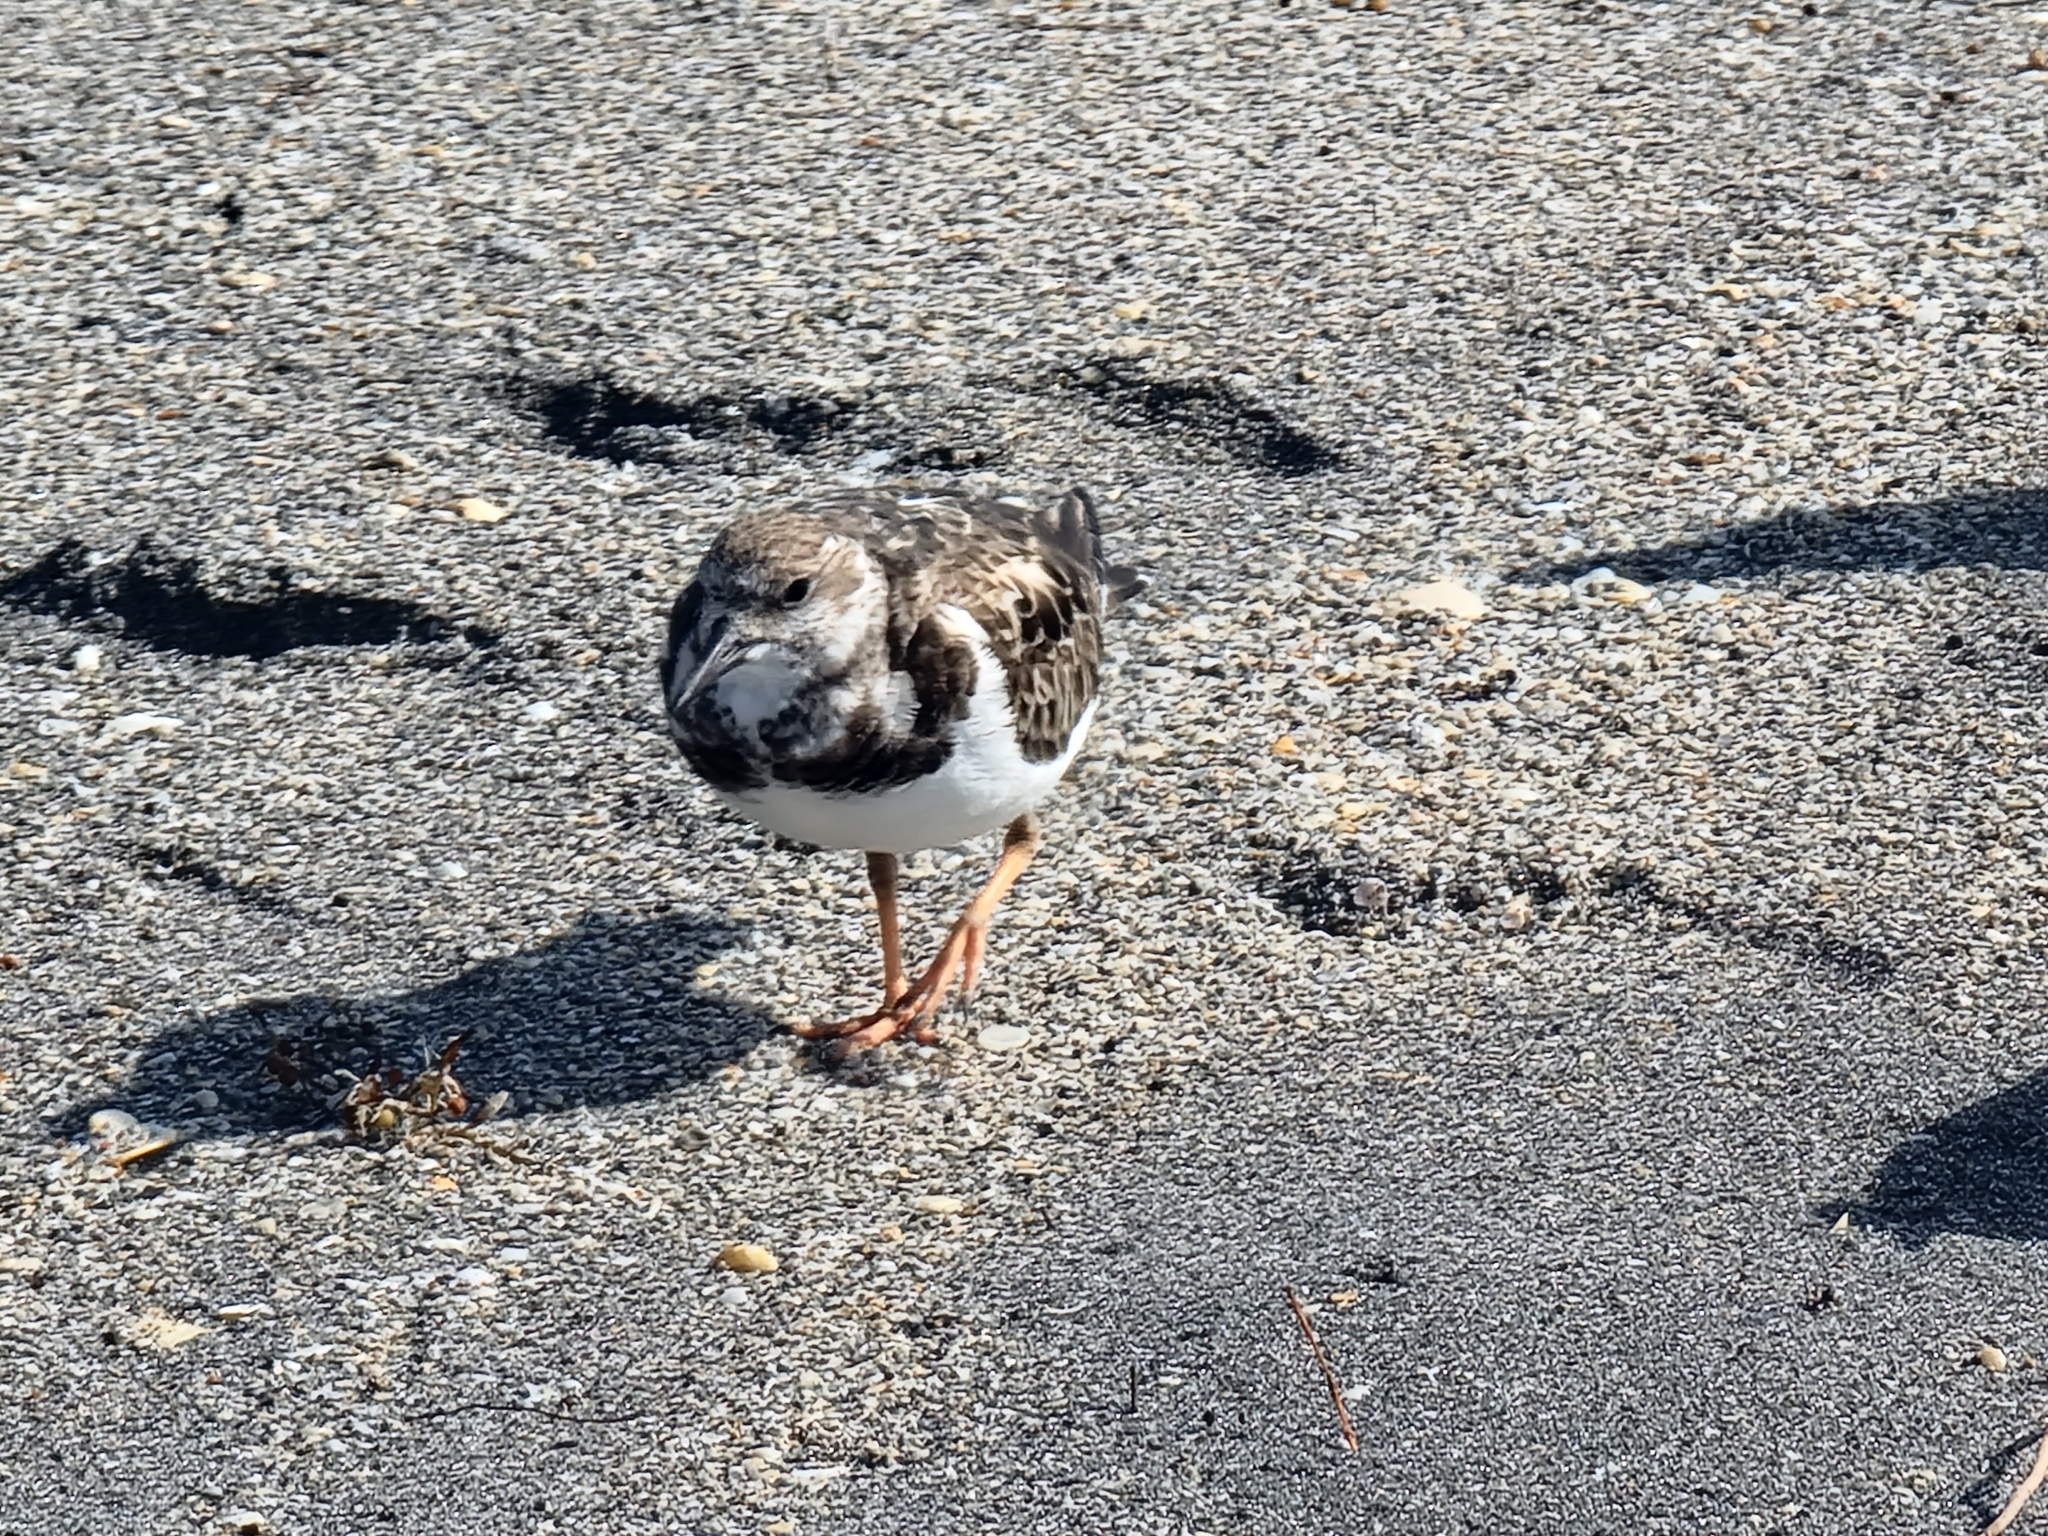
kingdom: Animalia
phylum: Chordata
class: Aves
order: Charadriiformes
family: Scolopacidae
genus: Arenaria
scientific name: Arenaria interpres
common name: Ruddy turnstone
